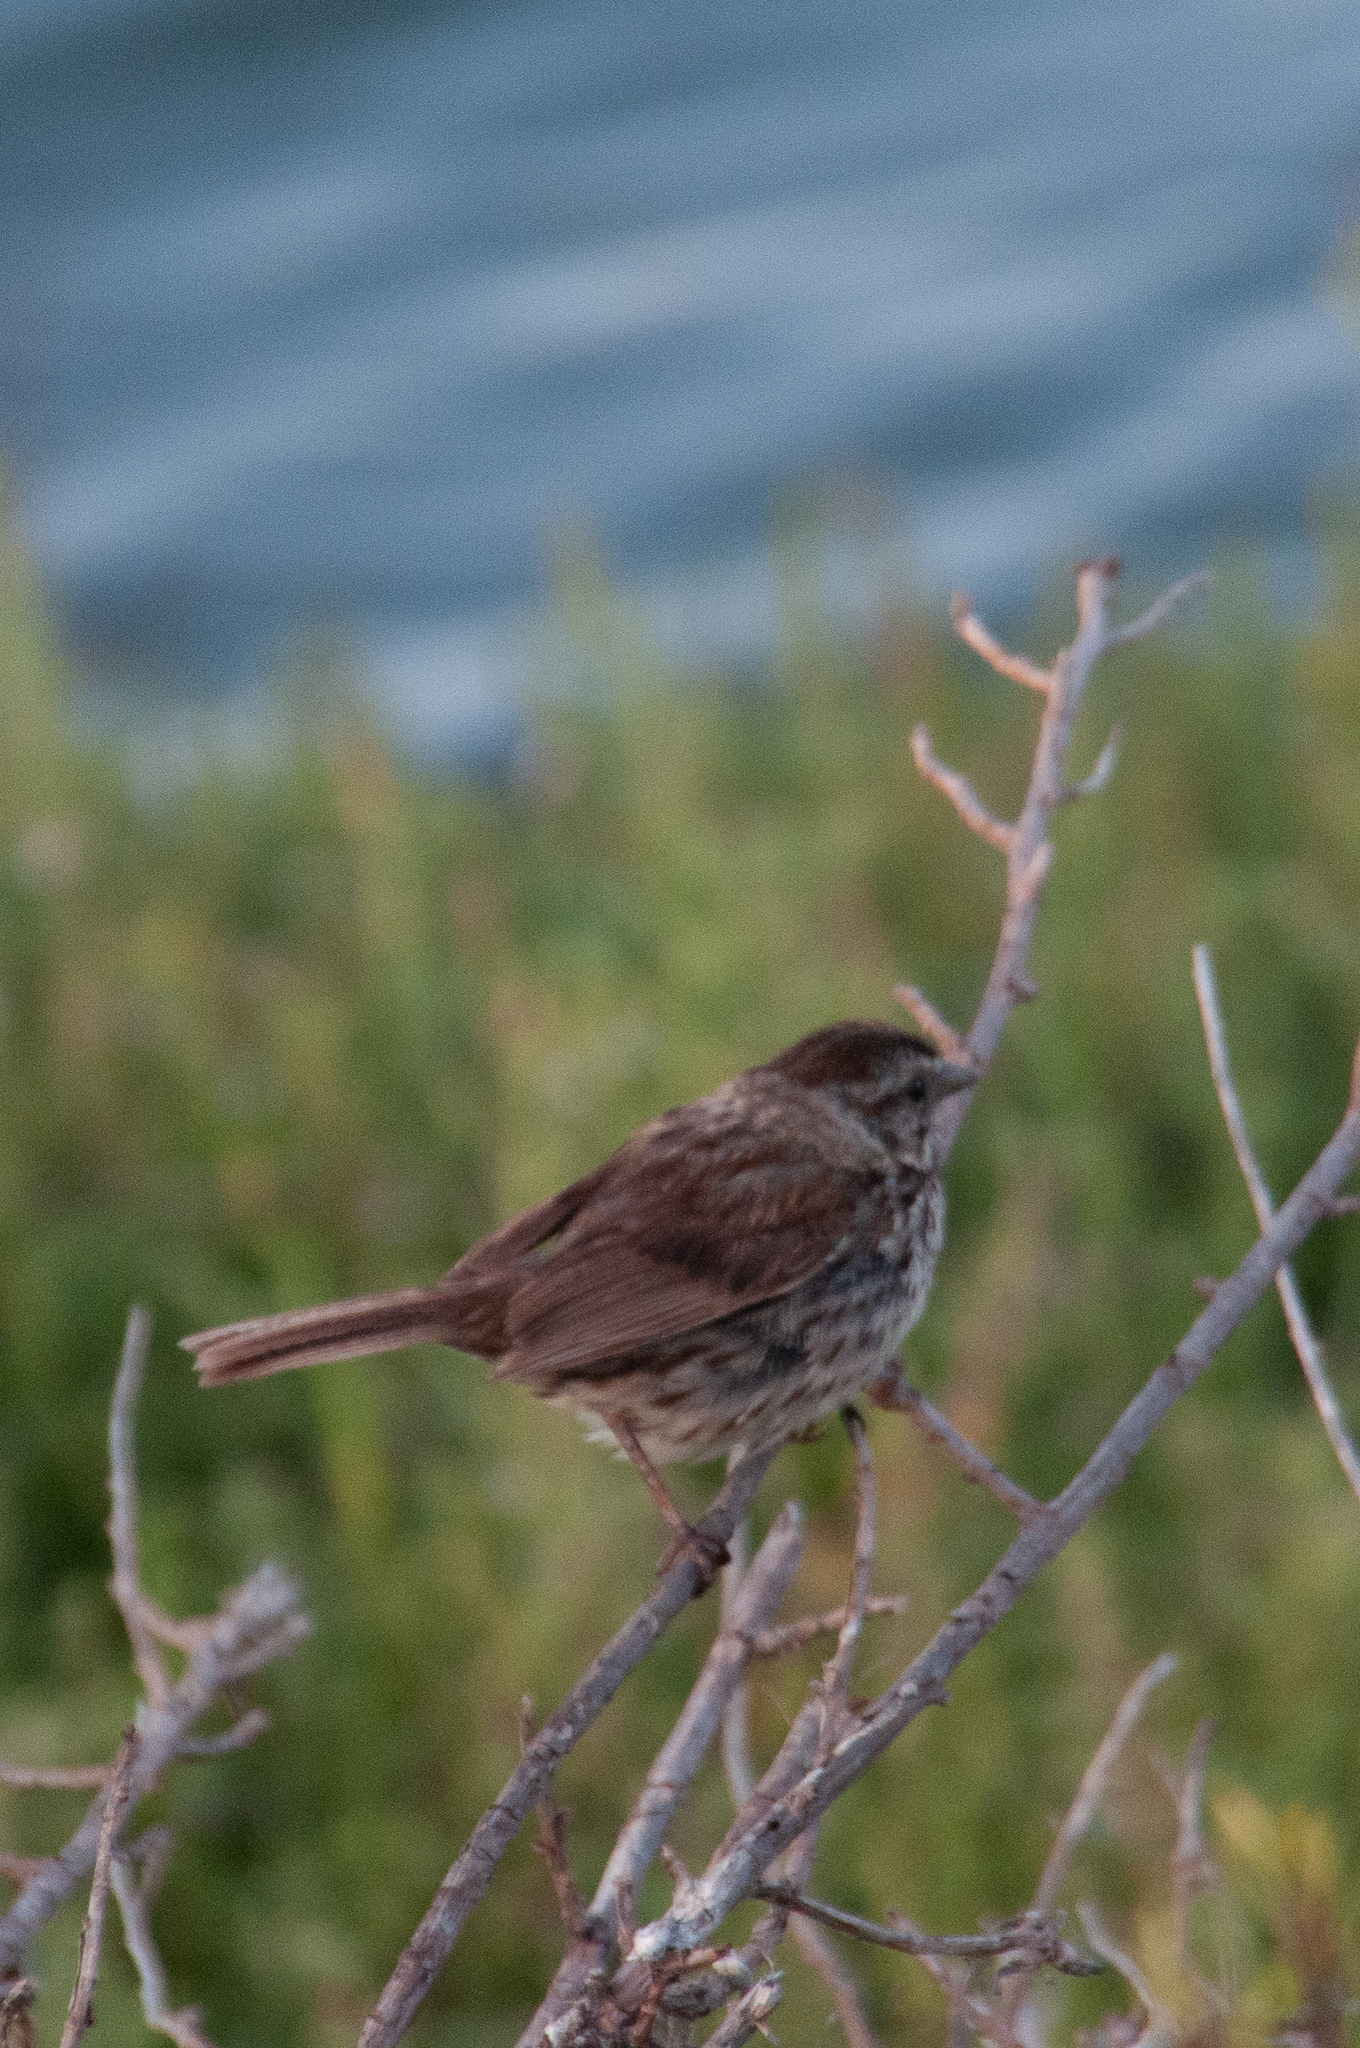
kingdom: Animalia
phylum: Chordata
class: Aves
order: Passeriformes
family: Passerellidae
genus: Melospiza
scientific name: Melospiza melodia
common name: Song sparrow
